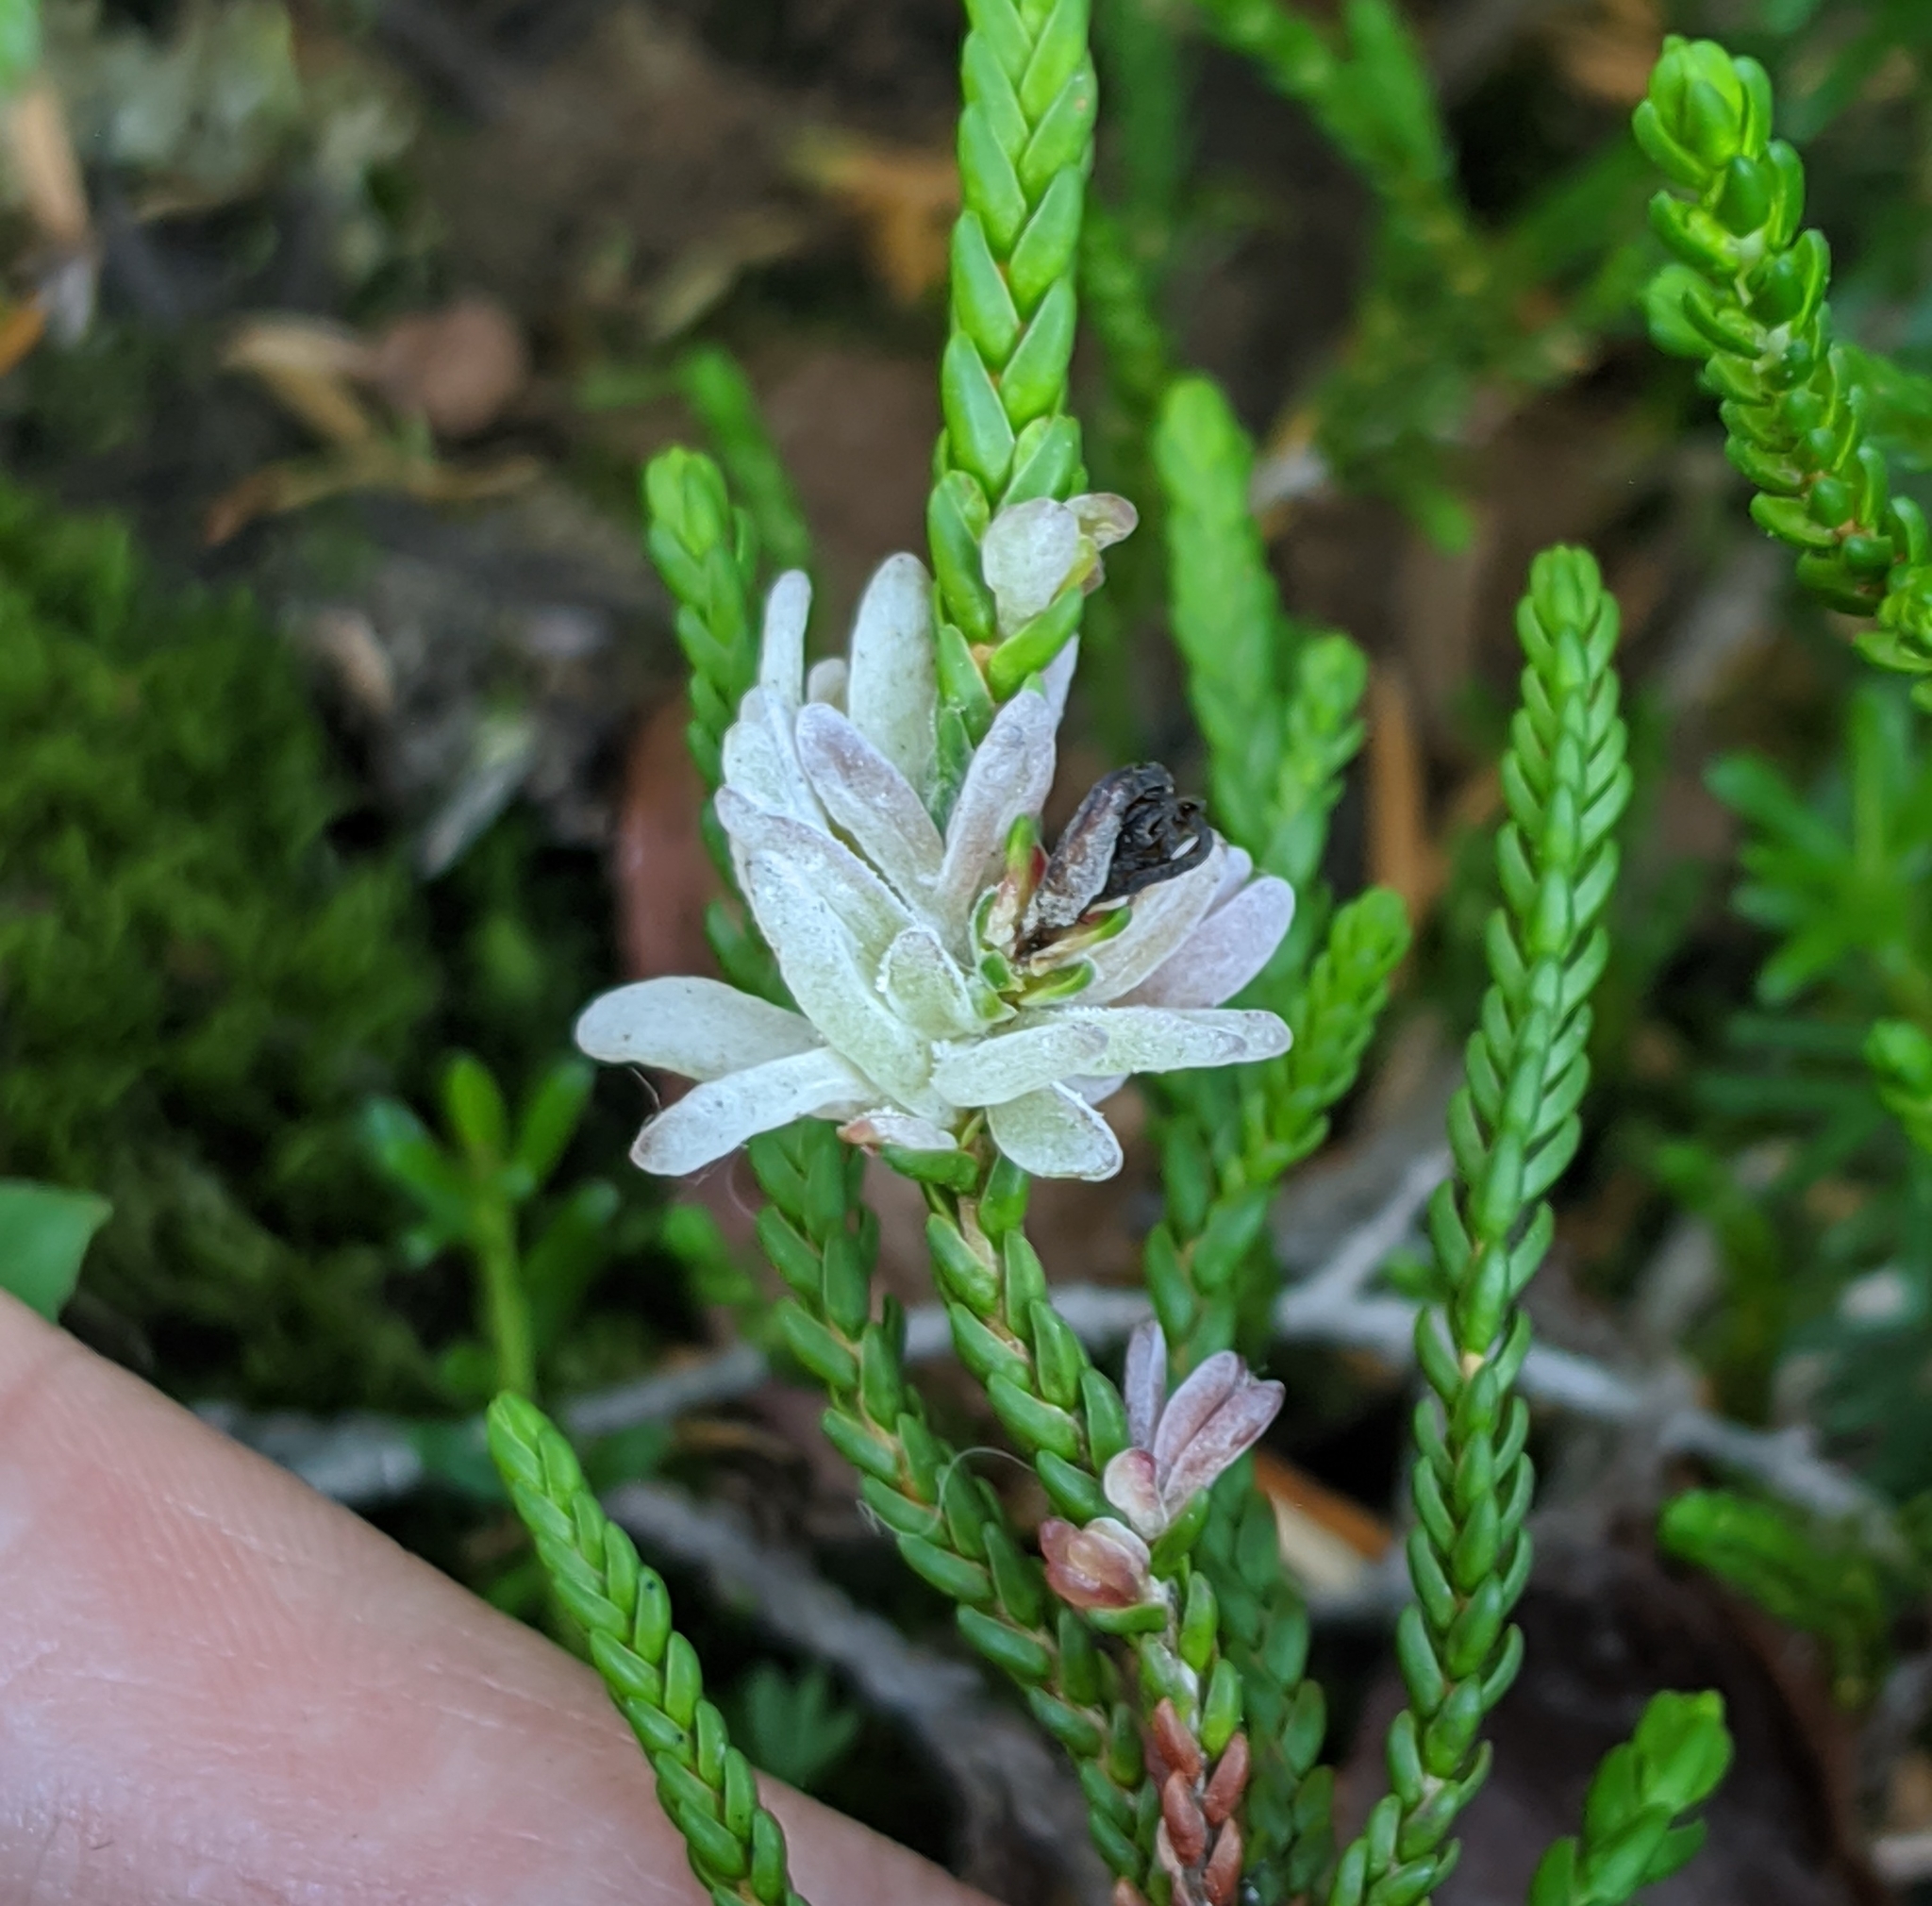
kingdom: Fungi
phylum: Basidiomycota
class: Exobasidiomycetes
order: Exobasidiales
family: Exobasidiaceae
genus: Exobasidium
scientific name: Exobasidium cassiopes
